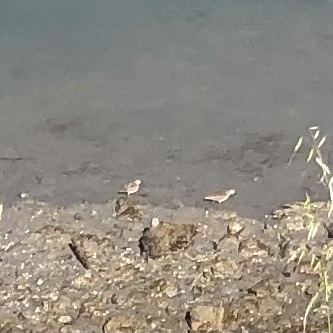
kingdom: Animalia
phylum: Chordata
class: Aves
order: Charadriiformes
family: Scolopacidae
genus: Calidris
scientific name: Calidris
